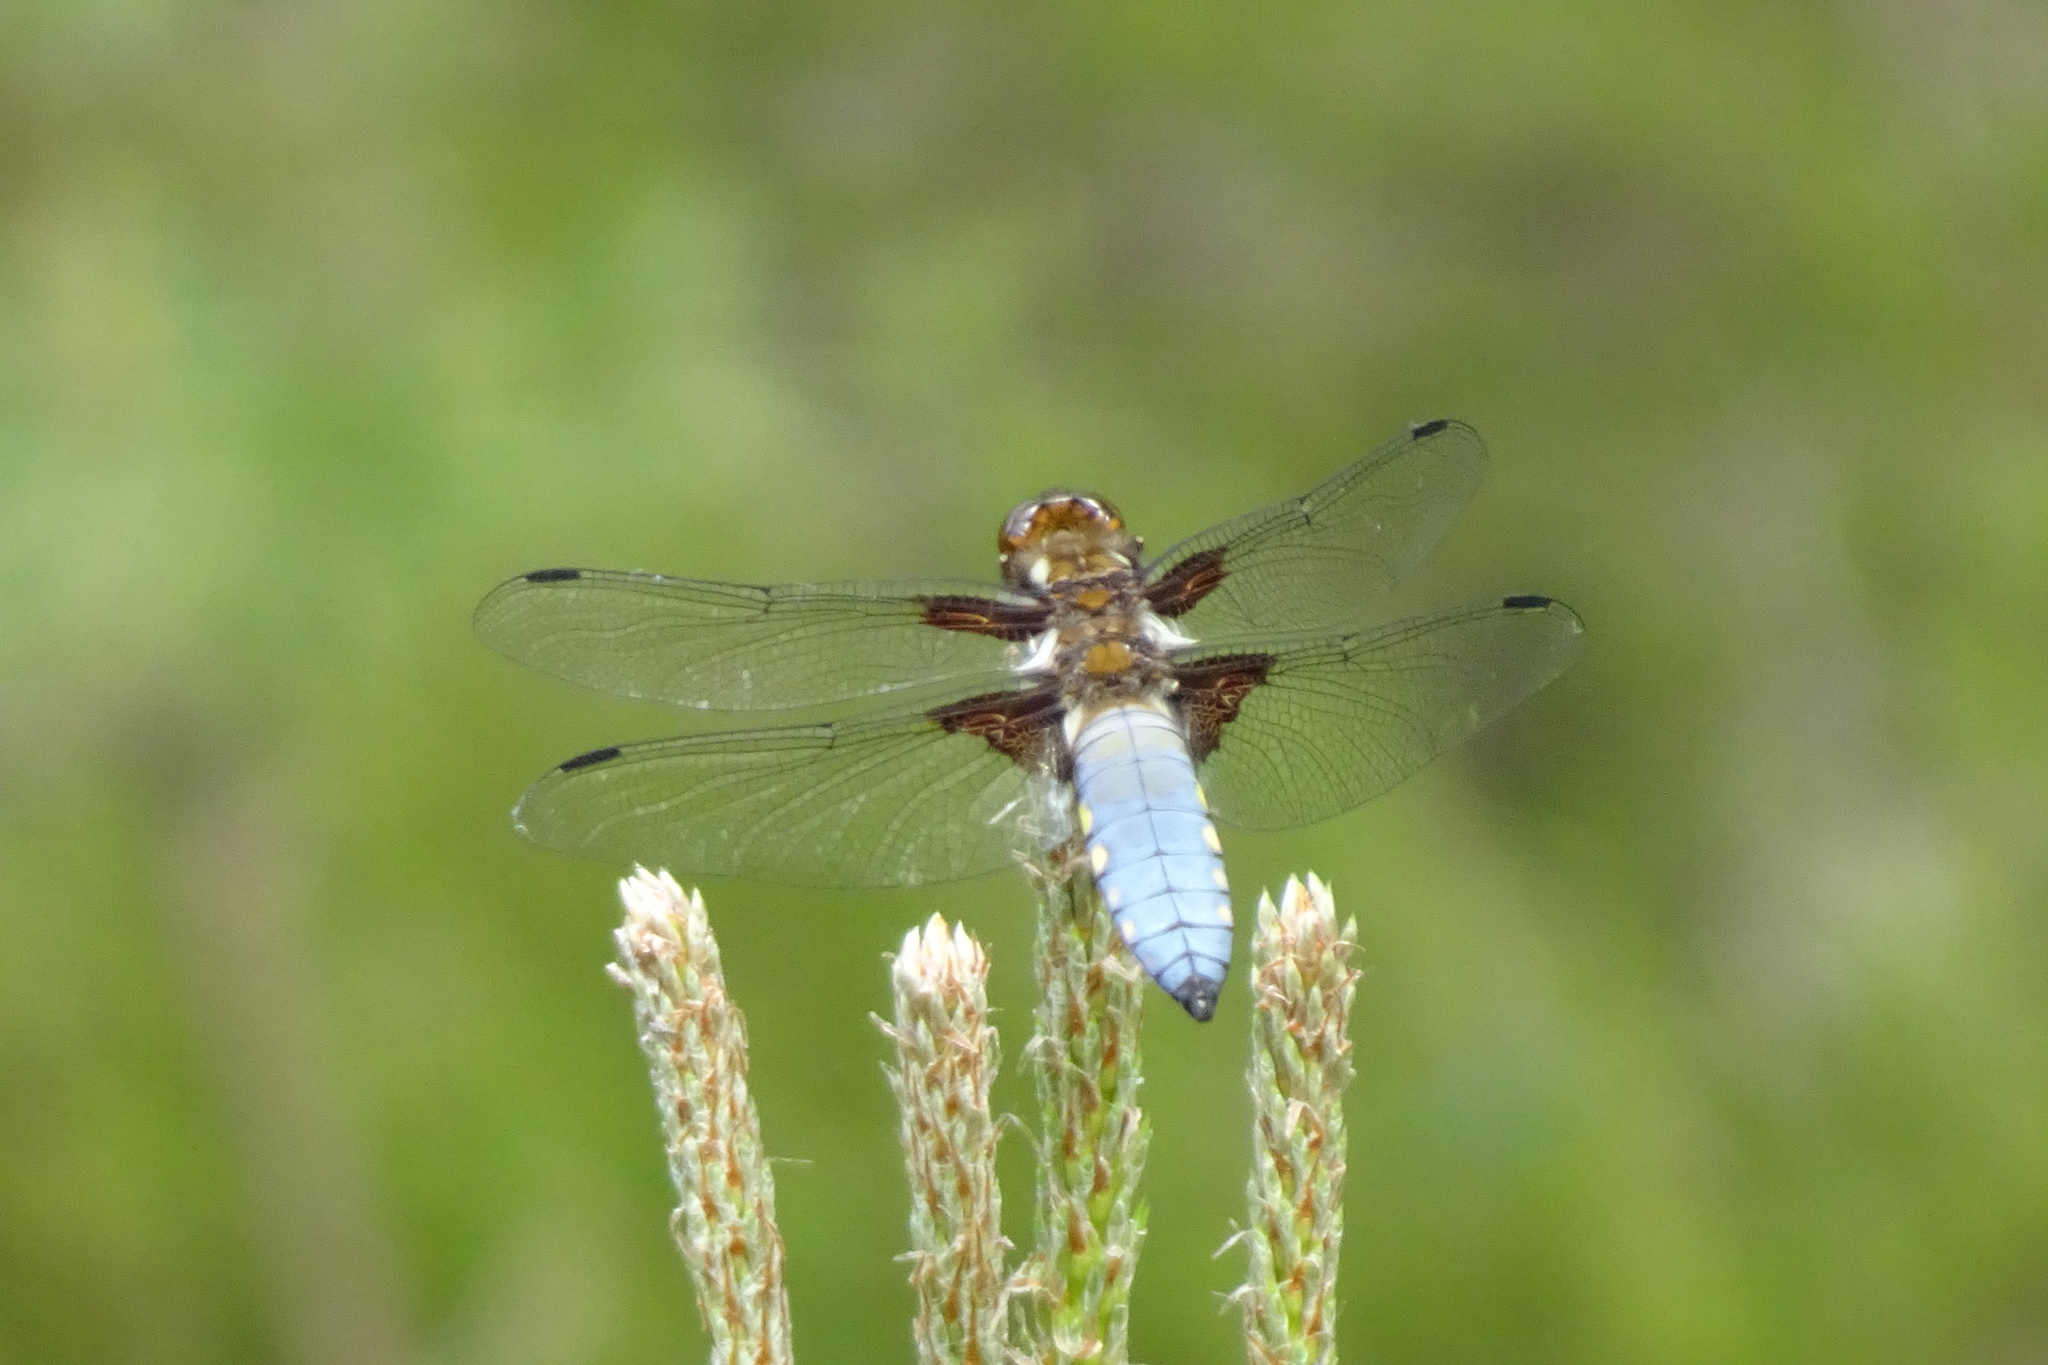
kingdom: Animalia
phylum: Arthropoda
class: Insecta
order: Odonata
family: Libellulidae
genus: Libellula
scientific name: Libellula depressa
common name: Broad-bodied chaser
